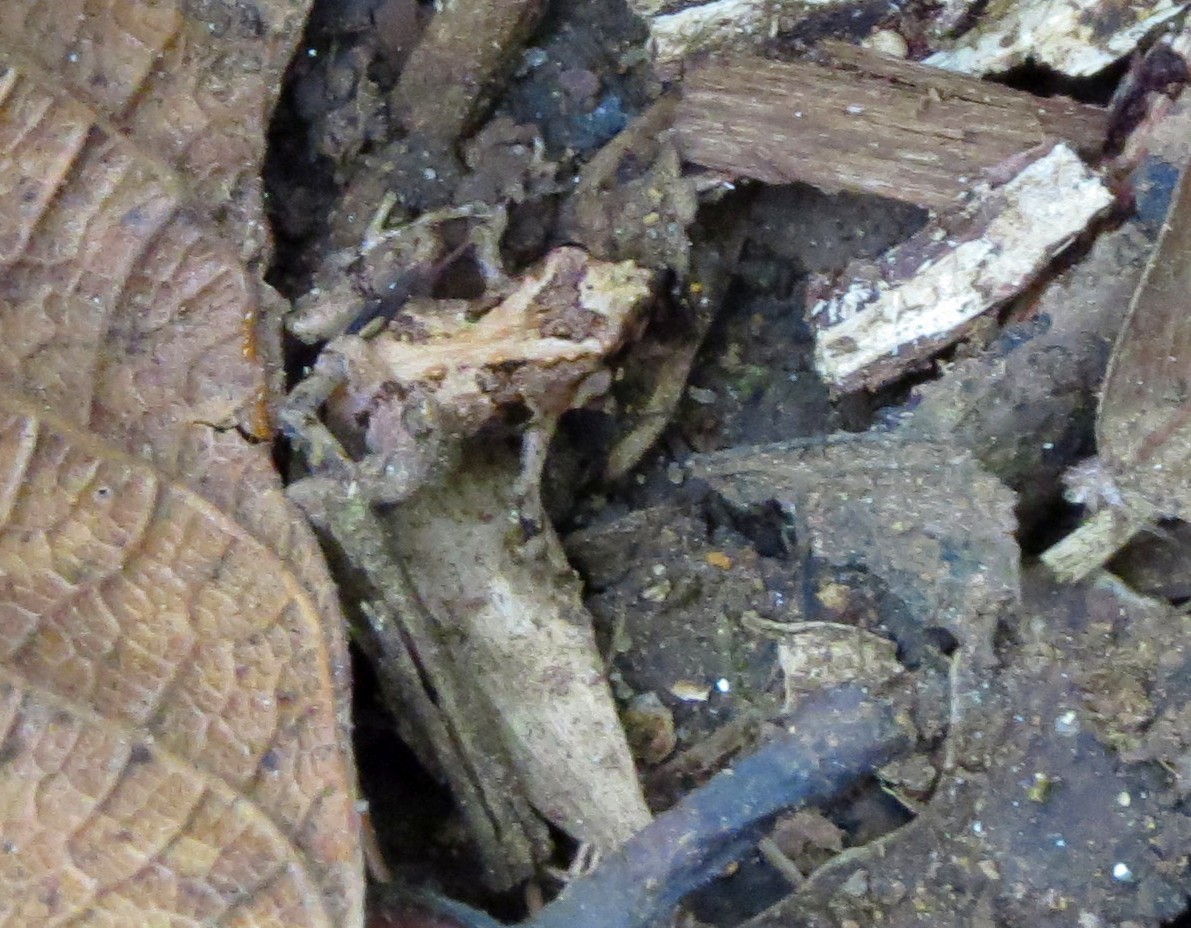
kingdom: Animalia
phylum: Chordata
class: Amphibia
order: Anura
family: Microhylidae
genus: Stumpffia
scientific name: Stumpffia achillei
